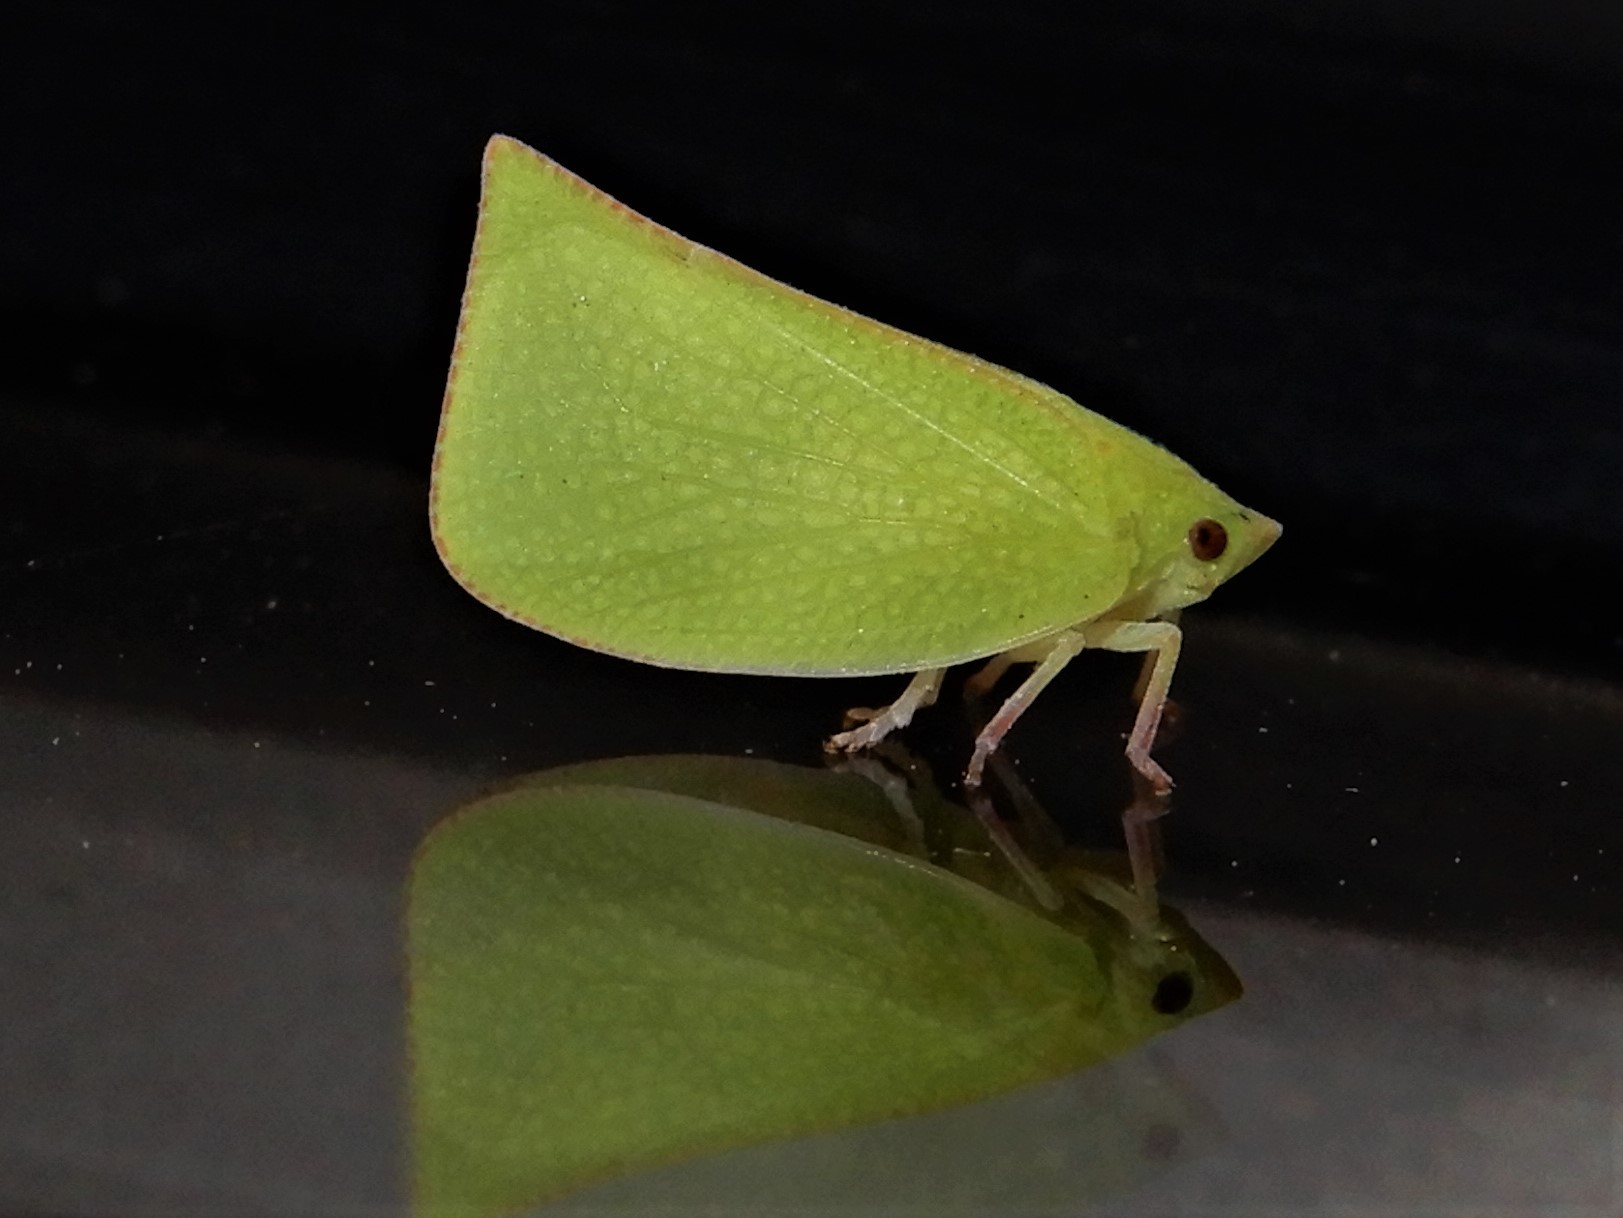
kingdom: Animalia
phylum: Arthropoda
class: Insecta
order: Hemiptera
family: Flatidae
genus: Siphanta
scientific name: Siphanta acuta
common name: Torpedo bug
